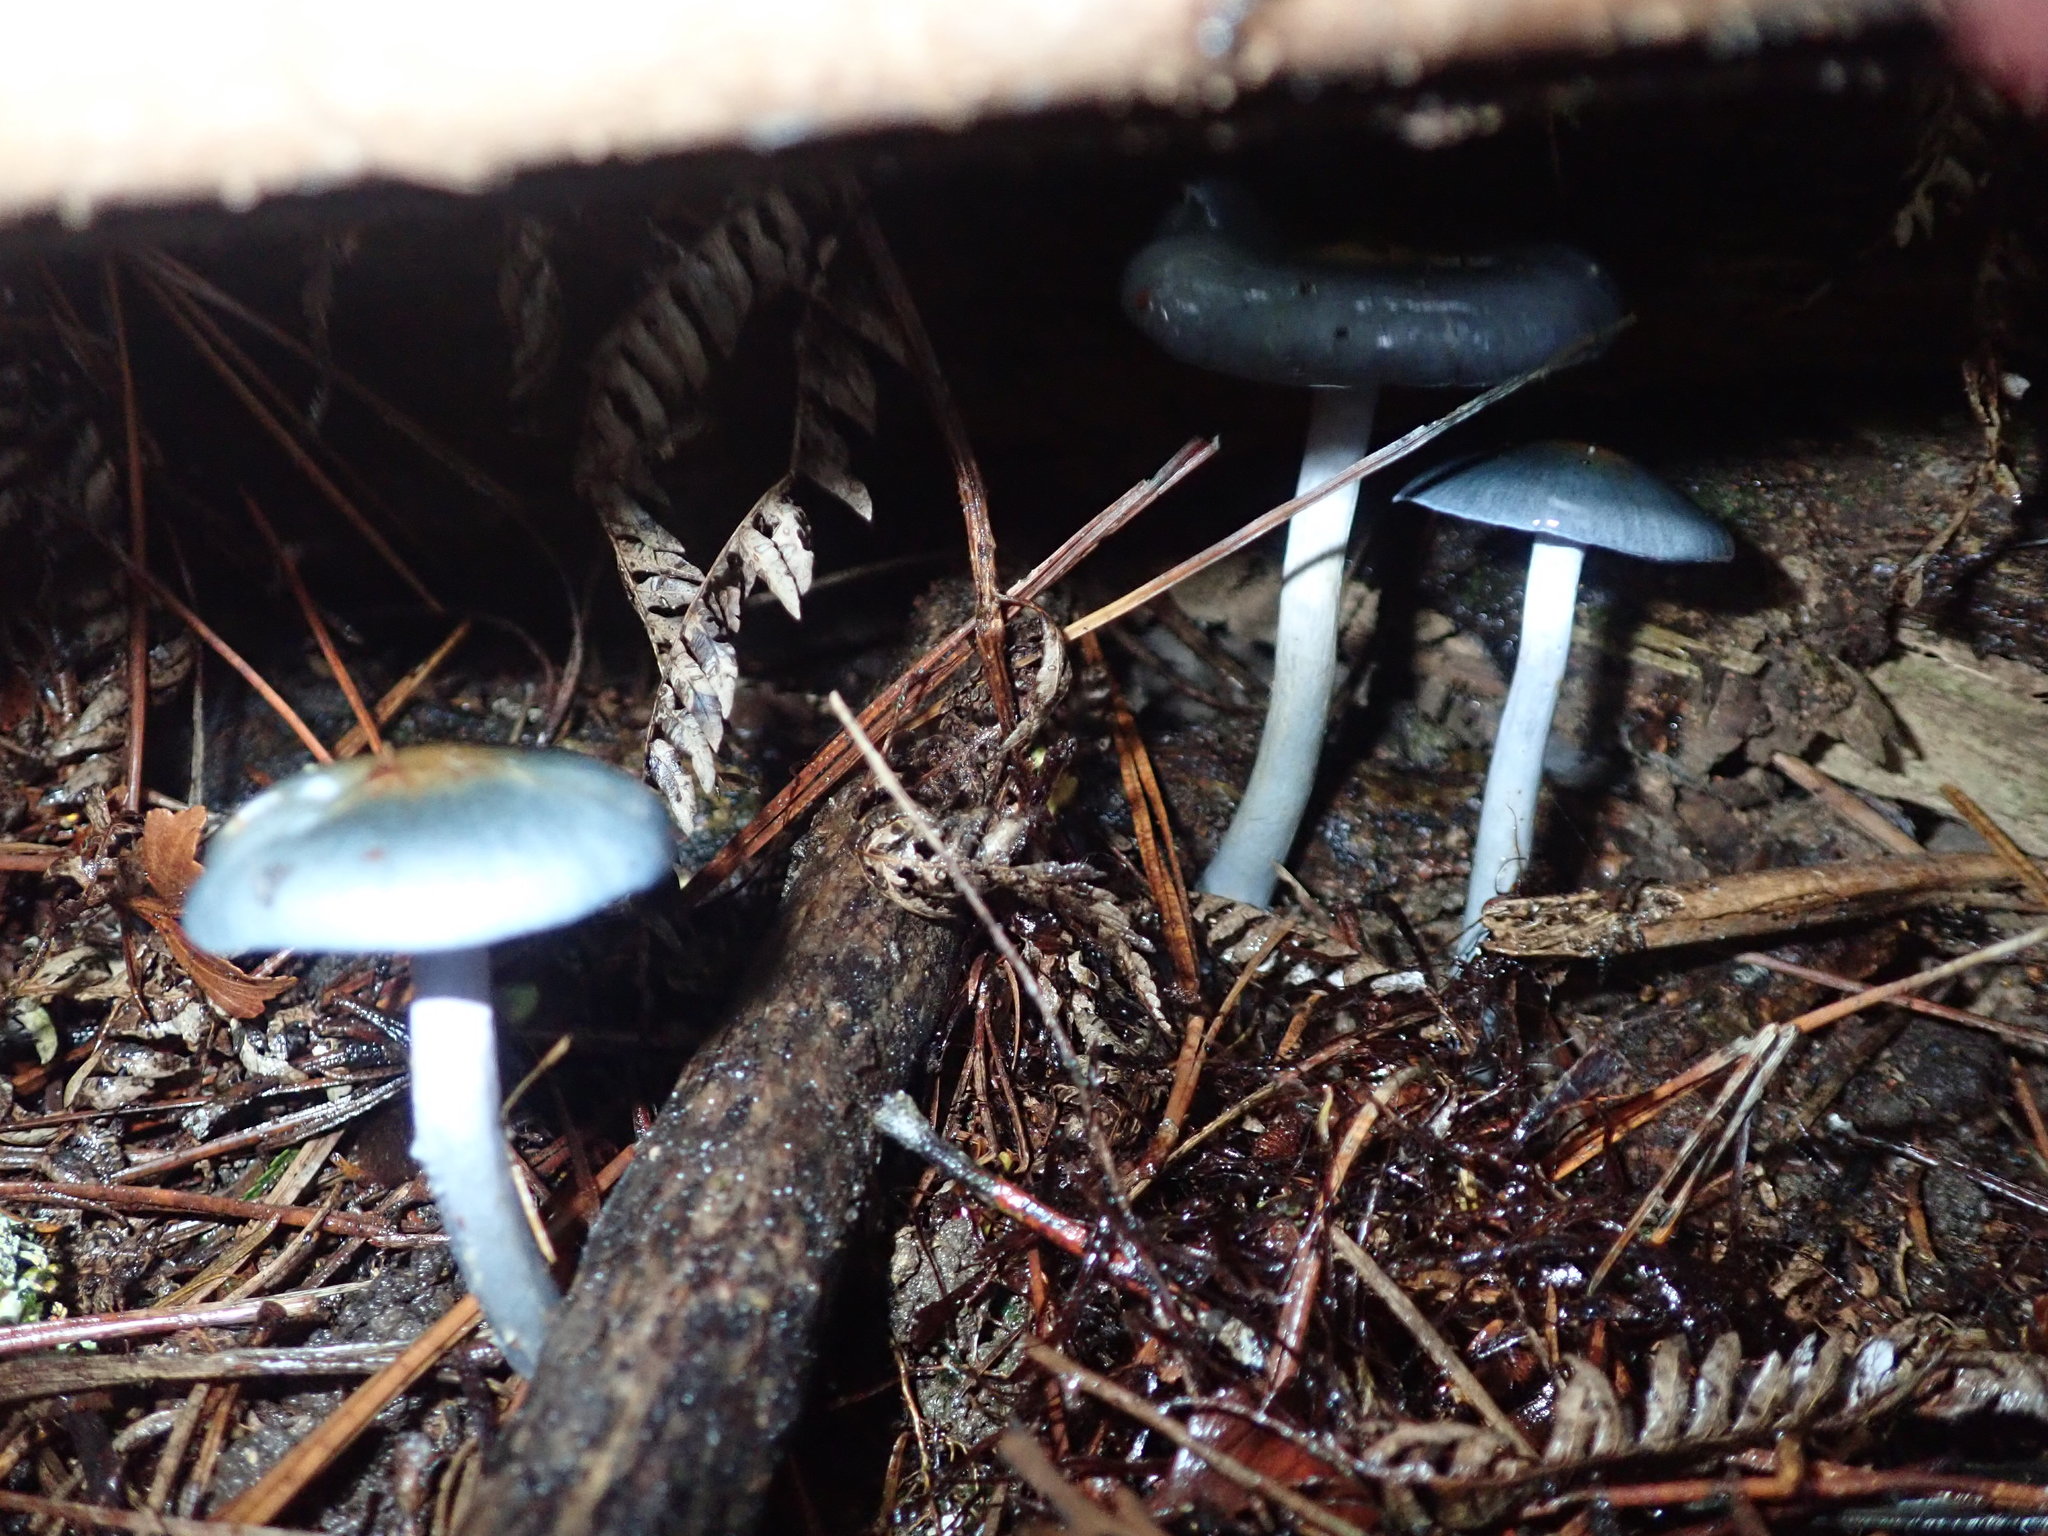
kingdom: Fungi
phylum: Basidiomycota
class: Agaricomycetes
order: Agaricales
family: Cortinariaceae
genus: Cortinarius
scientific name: Cortinarius rotundisporus
